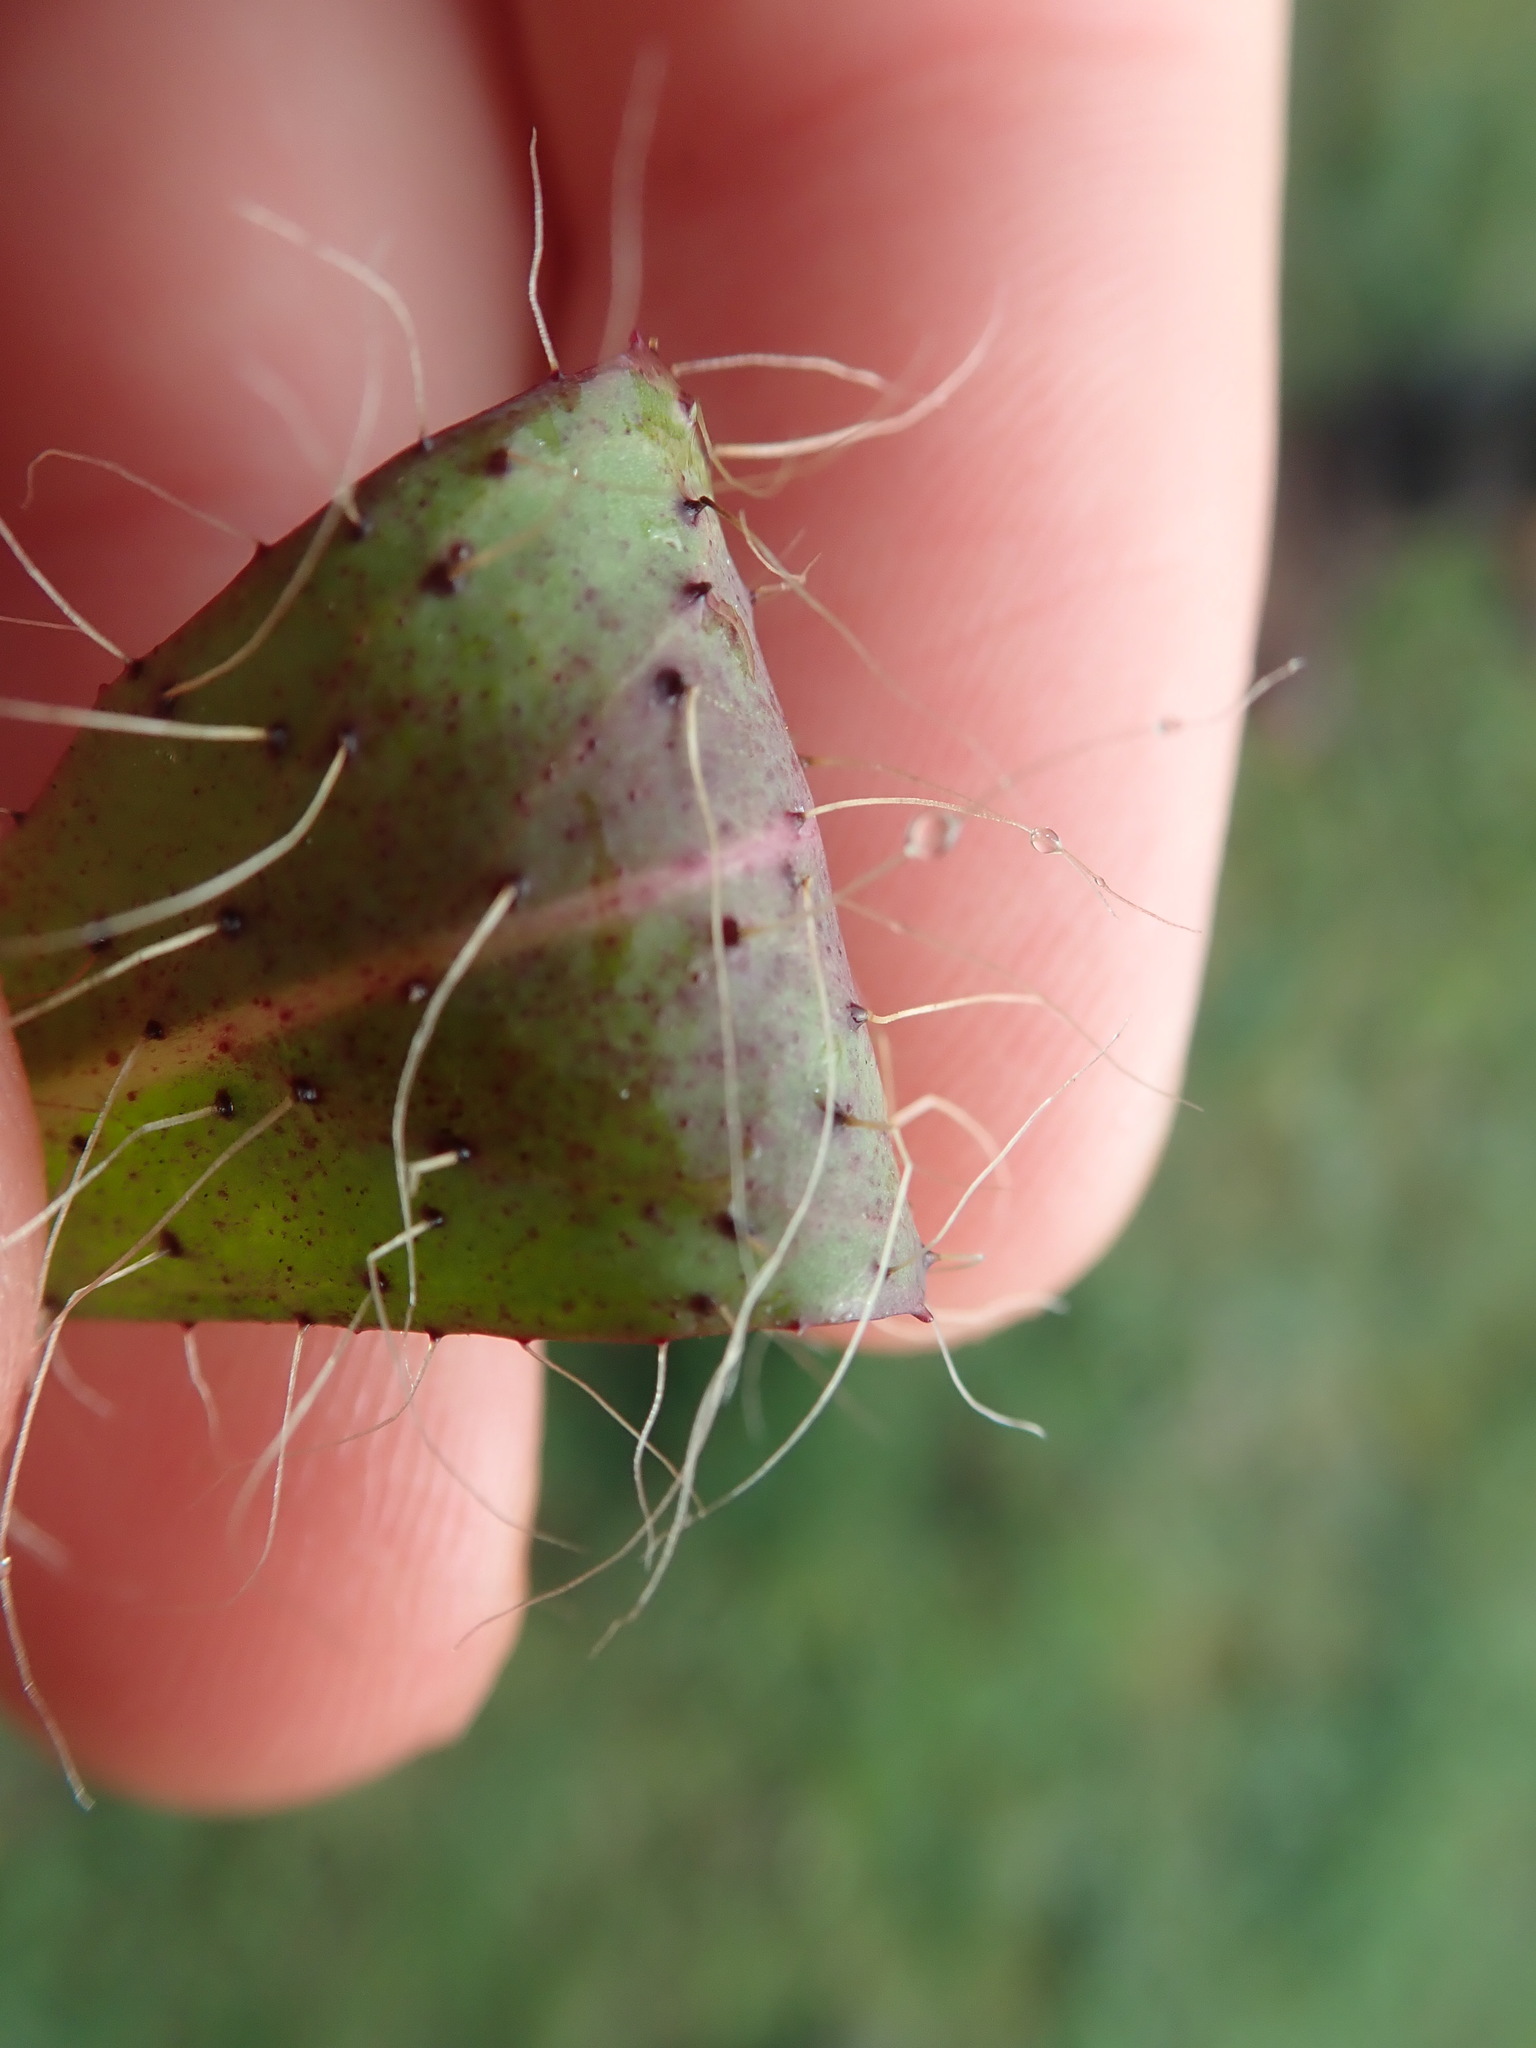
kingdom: Plantae
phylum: Tracheophyta
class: Magnoliopsida
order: Asterales
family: Asteraceae
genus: Pilosella
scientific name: Pilosella bauhini
